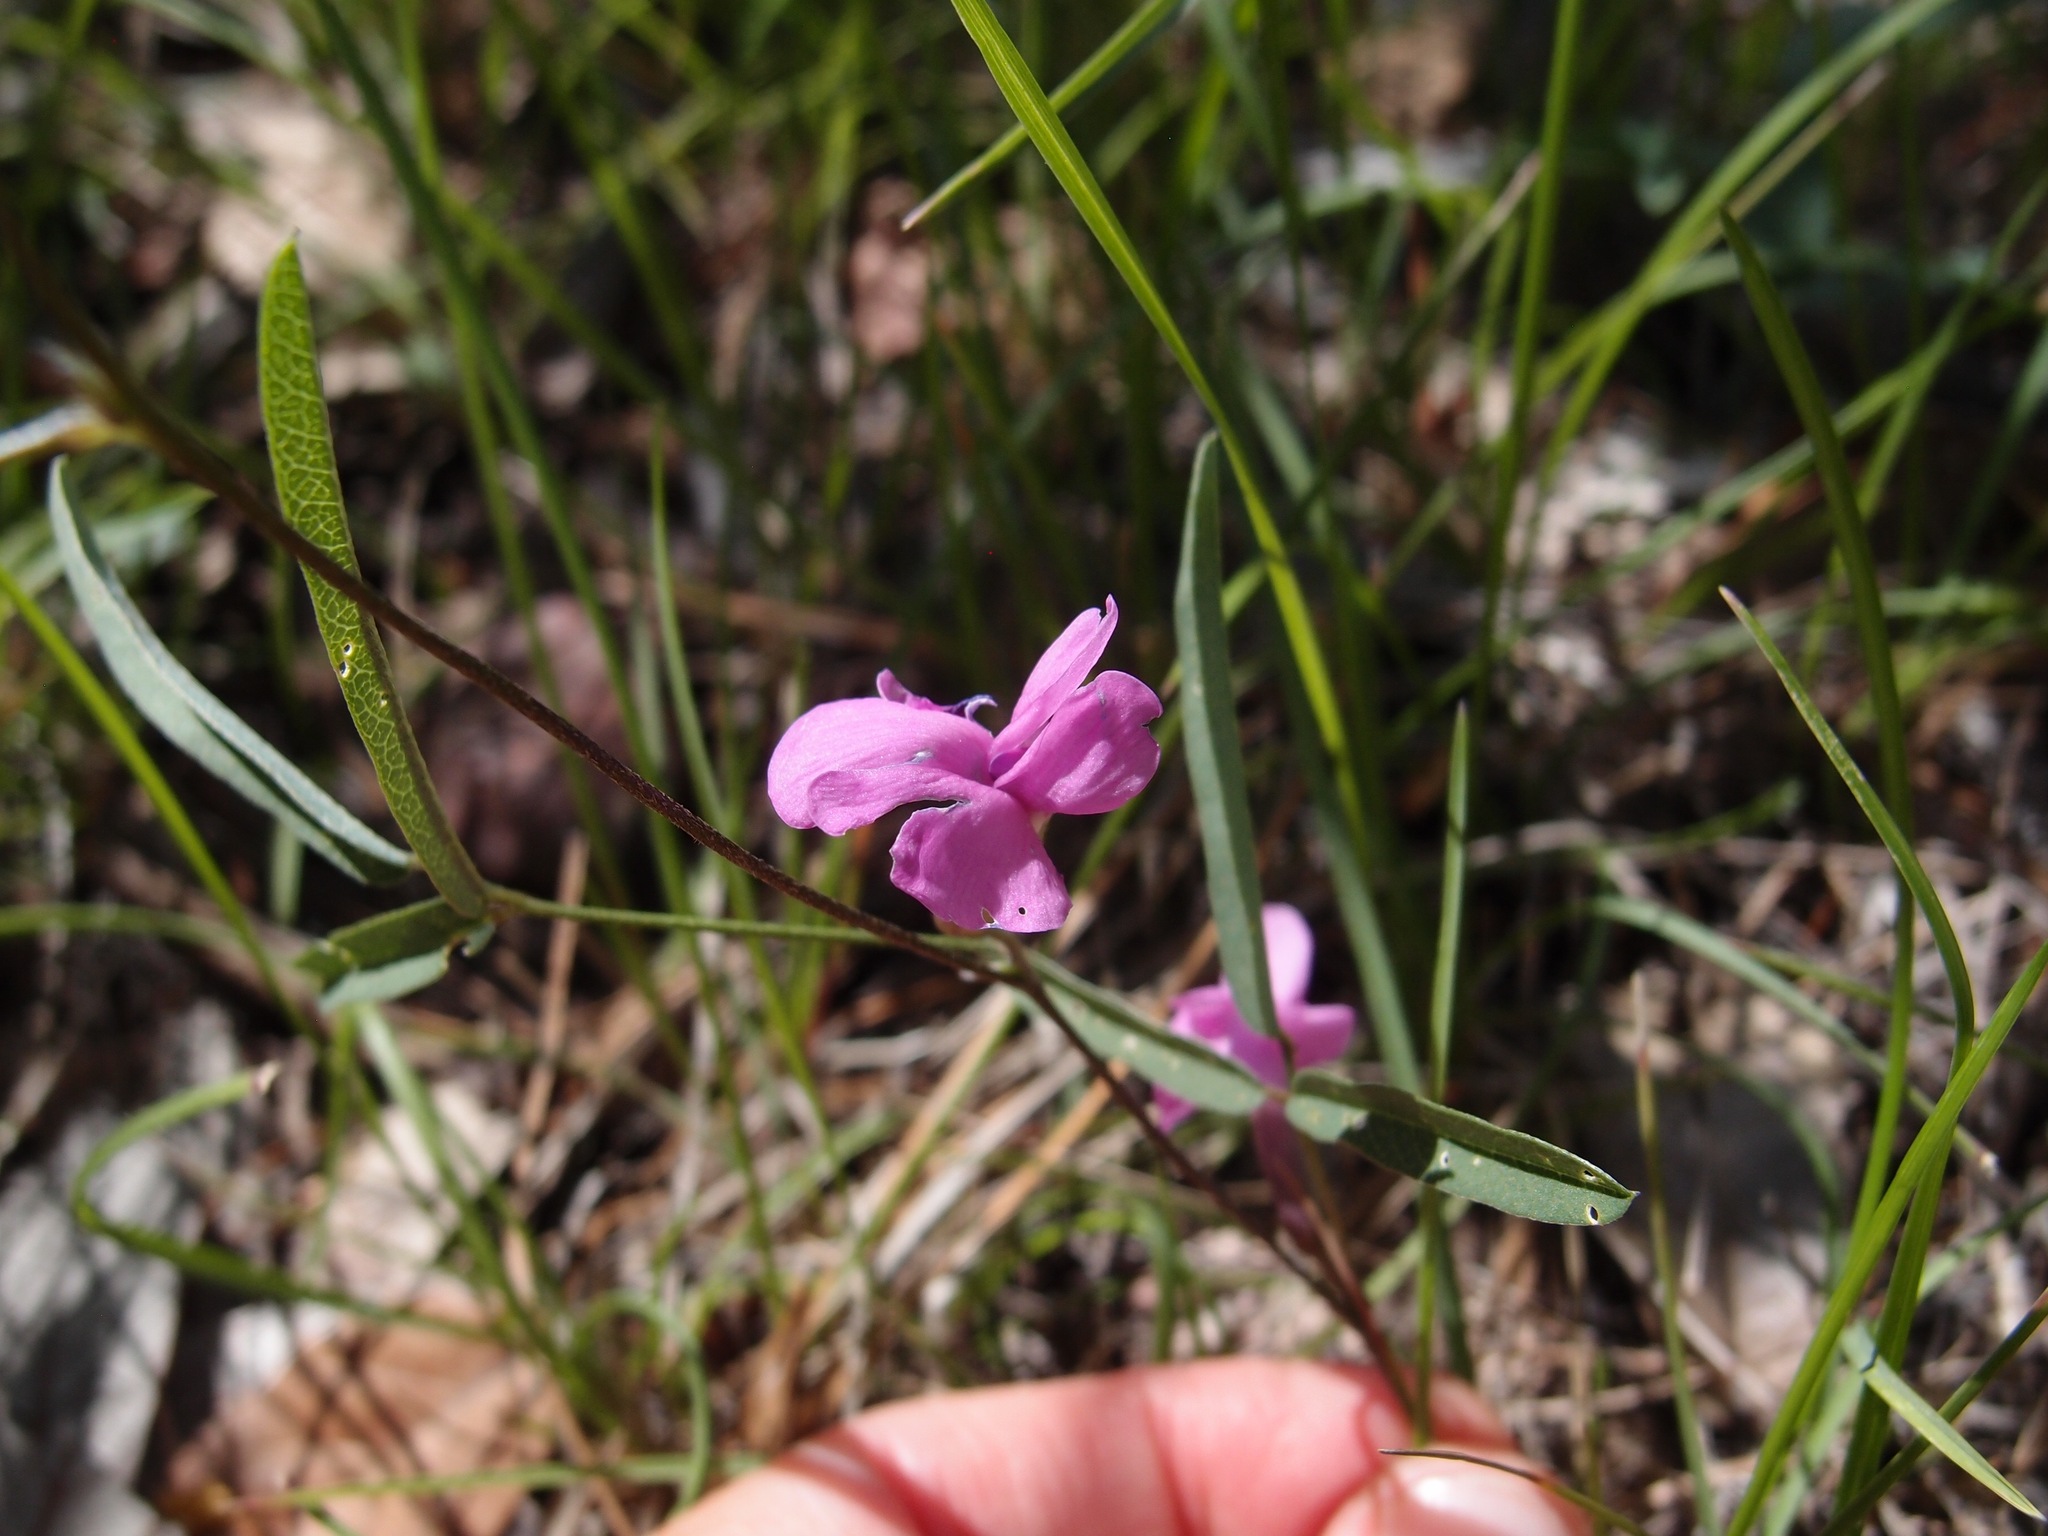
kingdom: Plantae
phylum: Tracheophyta
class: Magnoliopsida
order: Fabales
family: Fabaceae
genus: Cologania
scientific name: Cologania angustifolia
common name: Longleaf cologania
